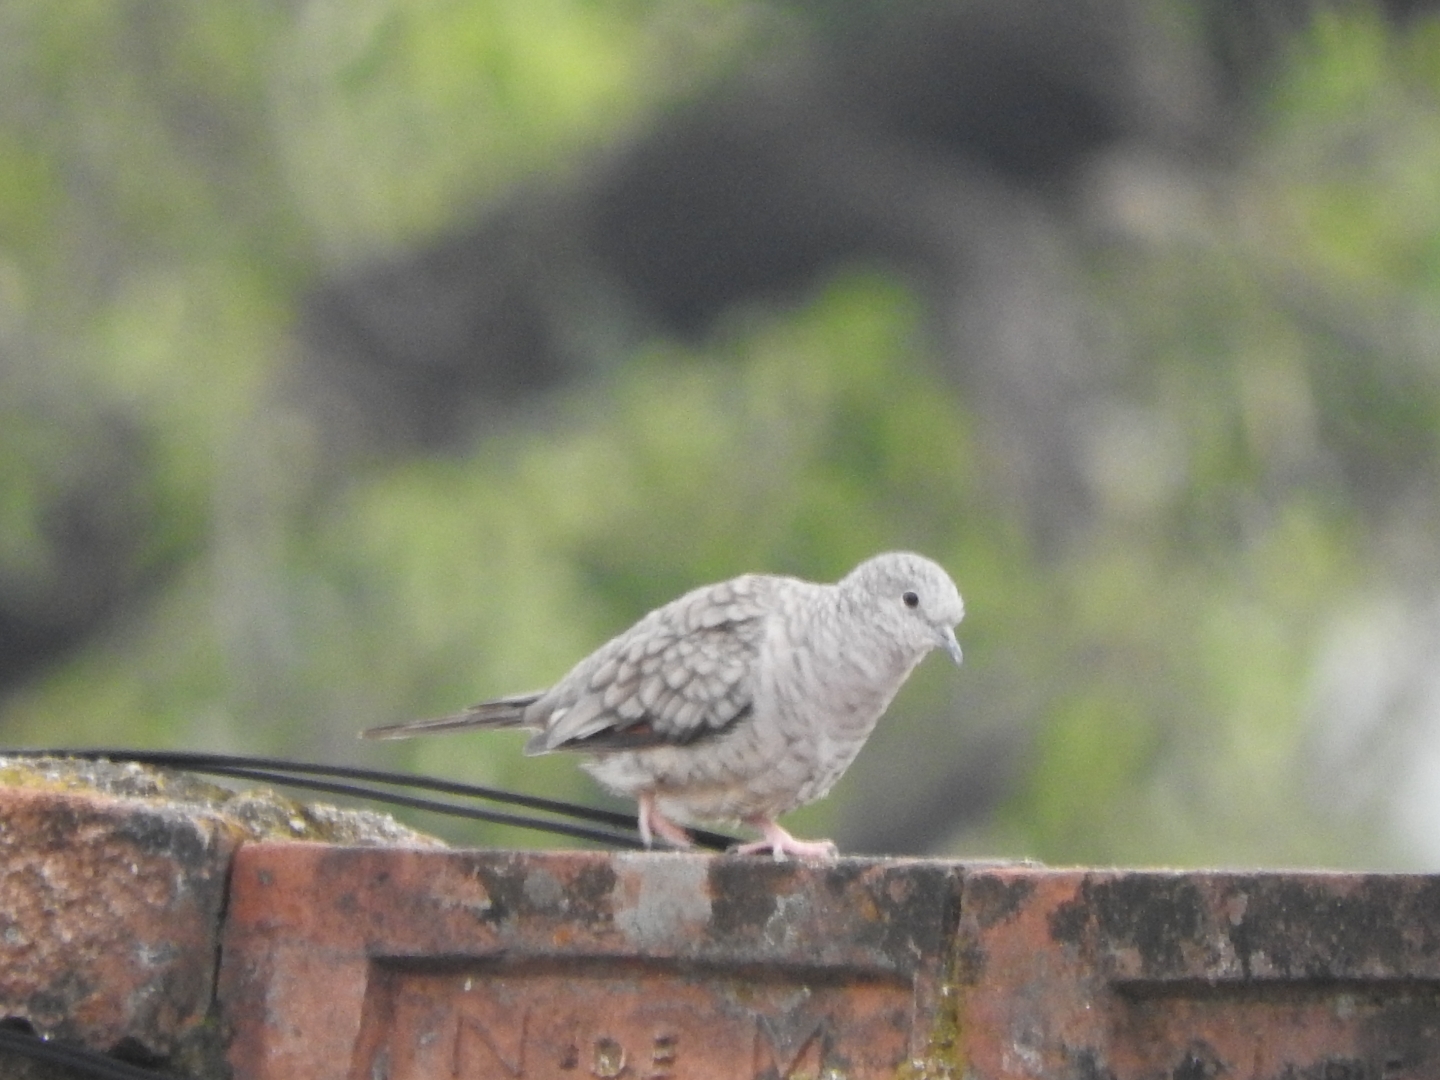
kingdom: Animalia
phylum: Chordata
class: Aves
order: Columbiformes
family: Columbidae
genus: Columbina
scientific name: Columbina inca
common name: Inca dove
